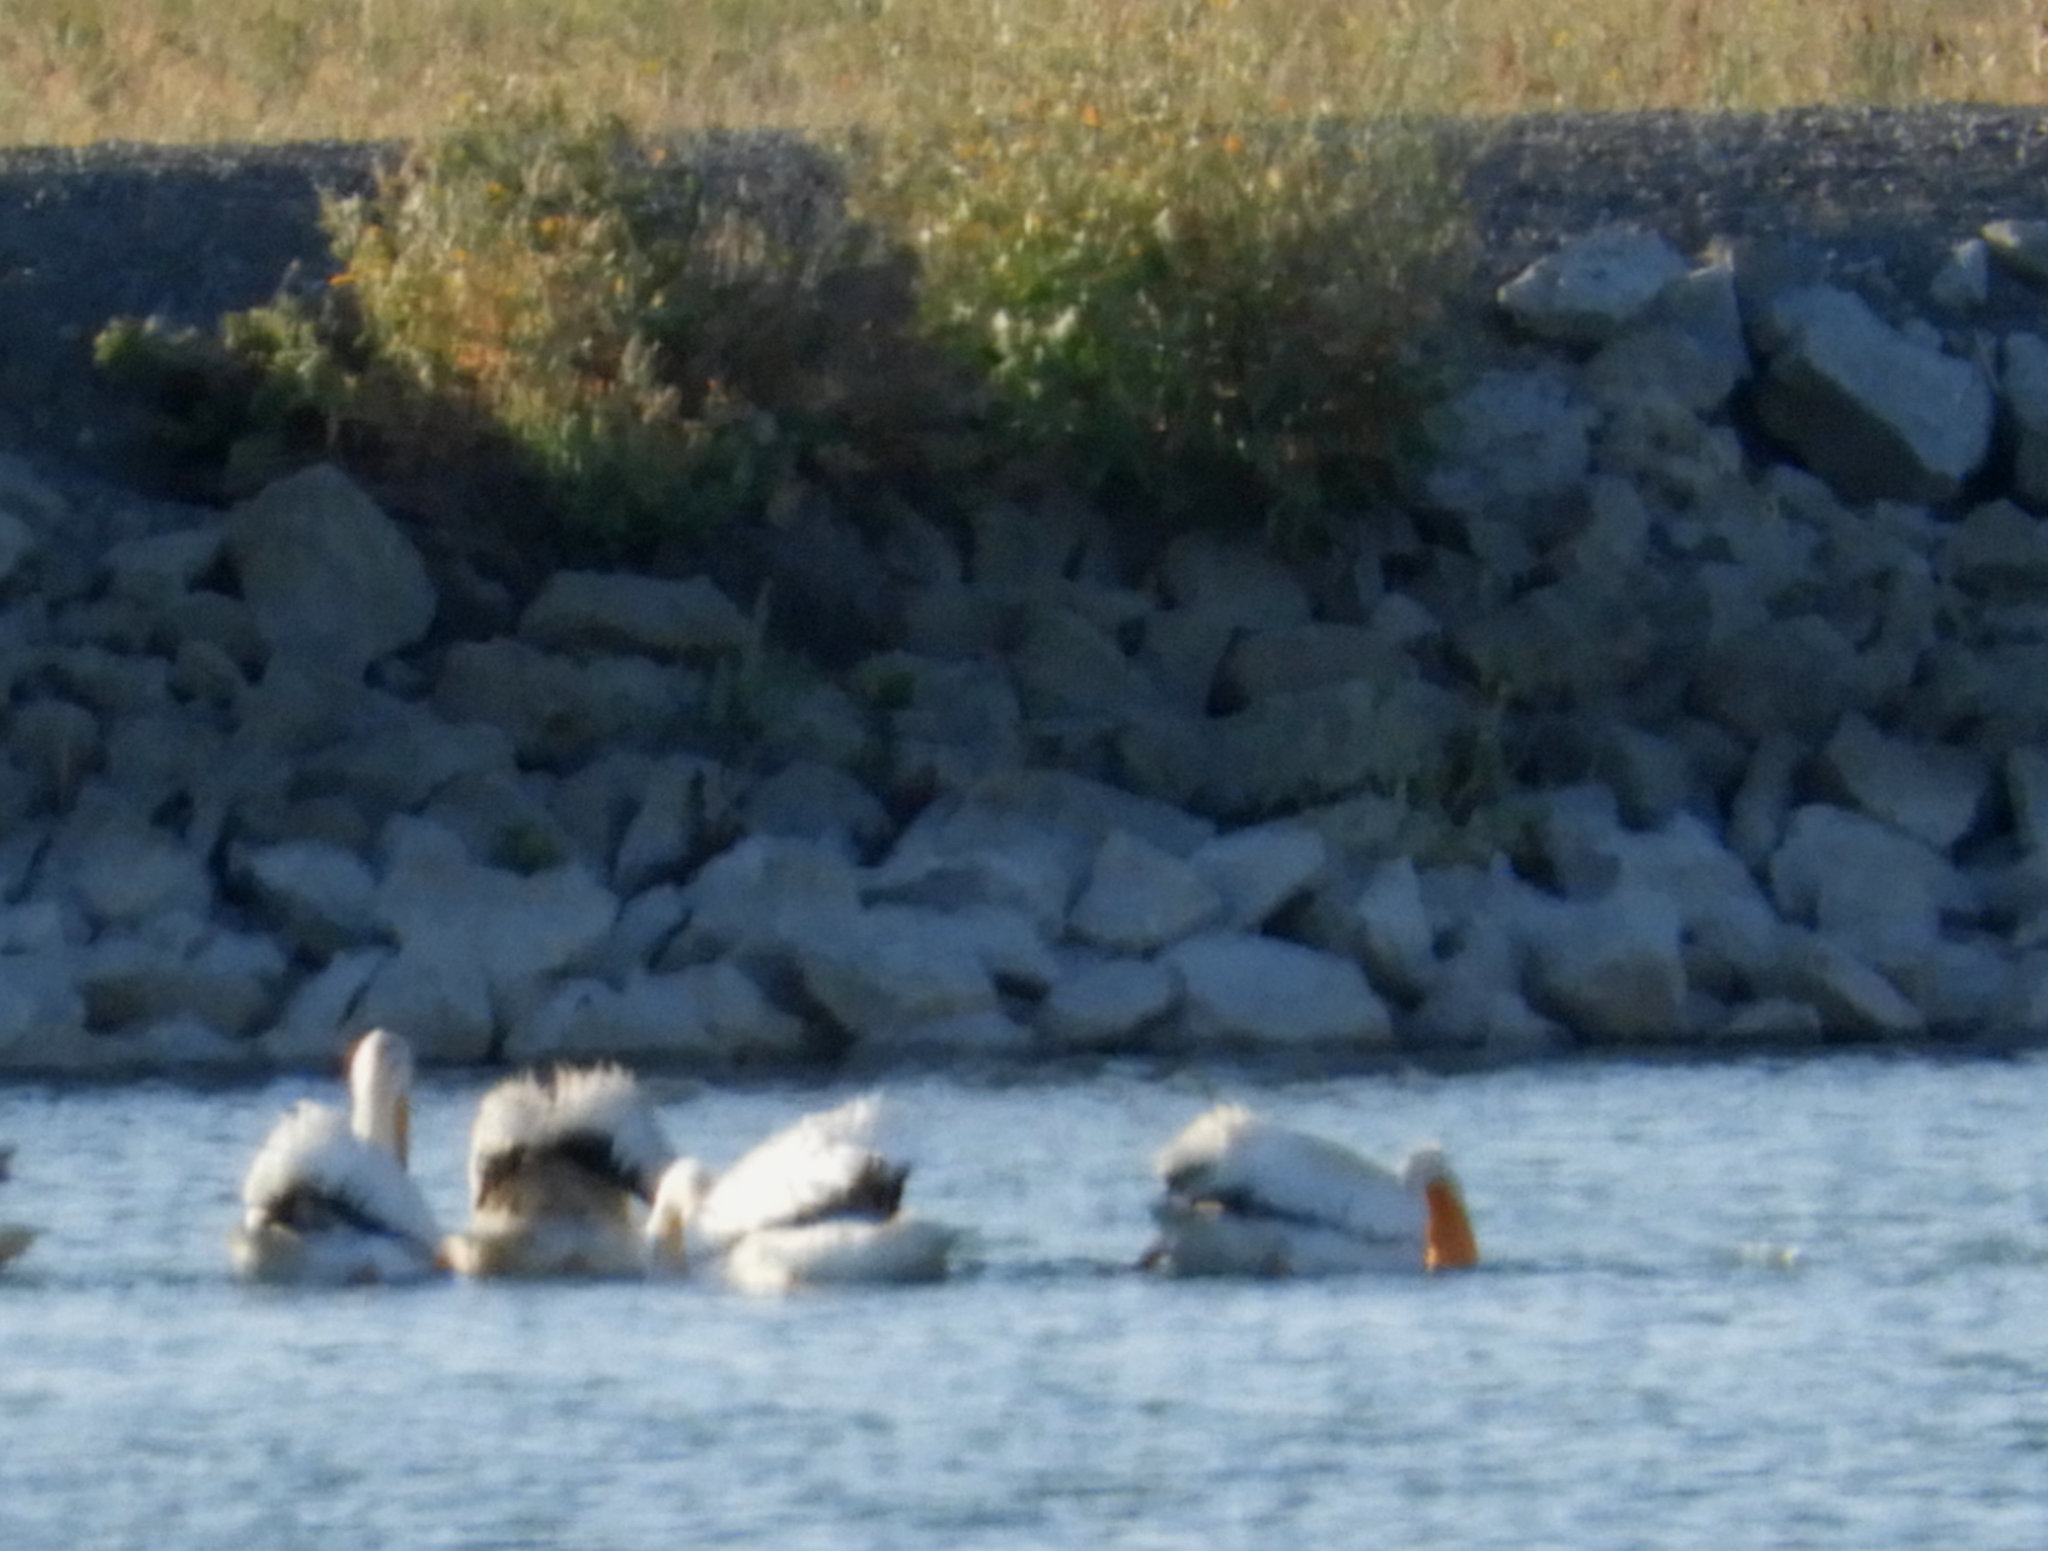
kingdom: Animalia
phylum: Chordata
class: Aves
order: Pelecaniformes
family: Pelecanidae
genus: Pelecanus
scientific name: Pelecanus erythrorhynchos
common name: American white pelican
